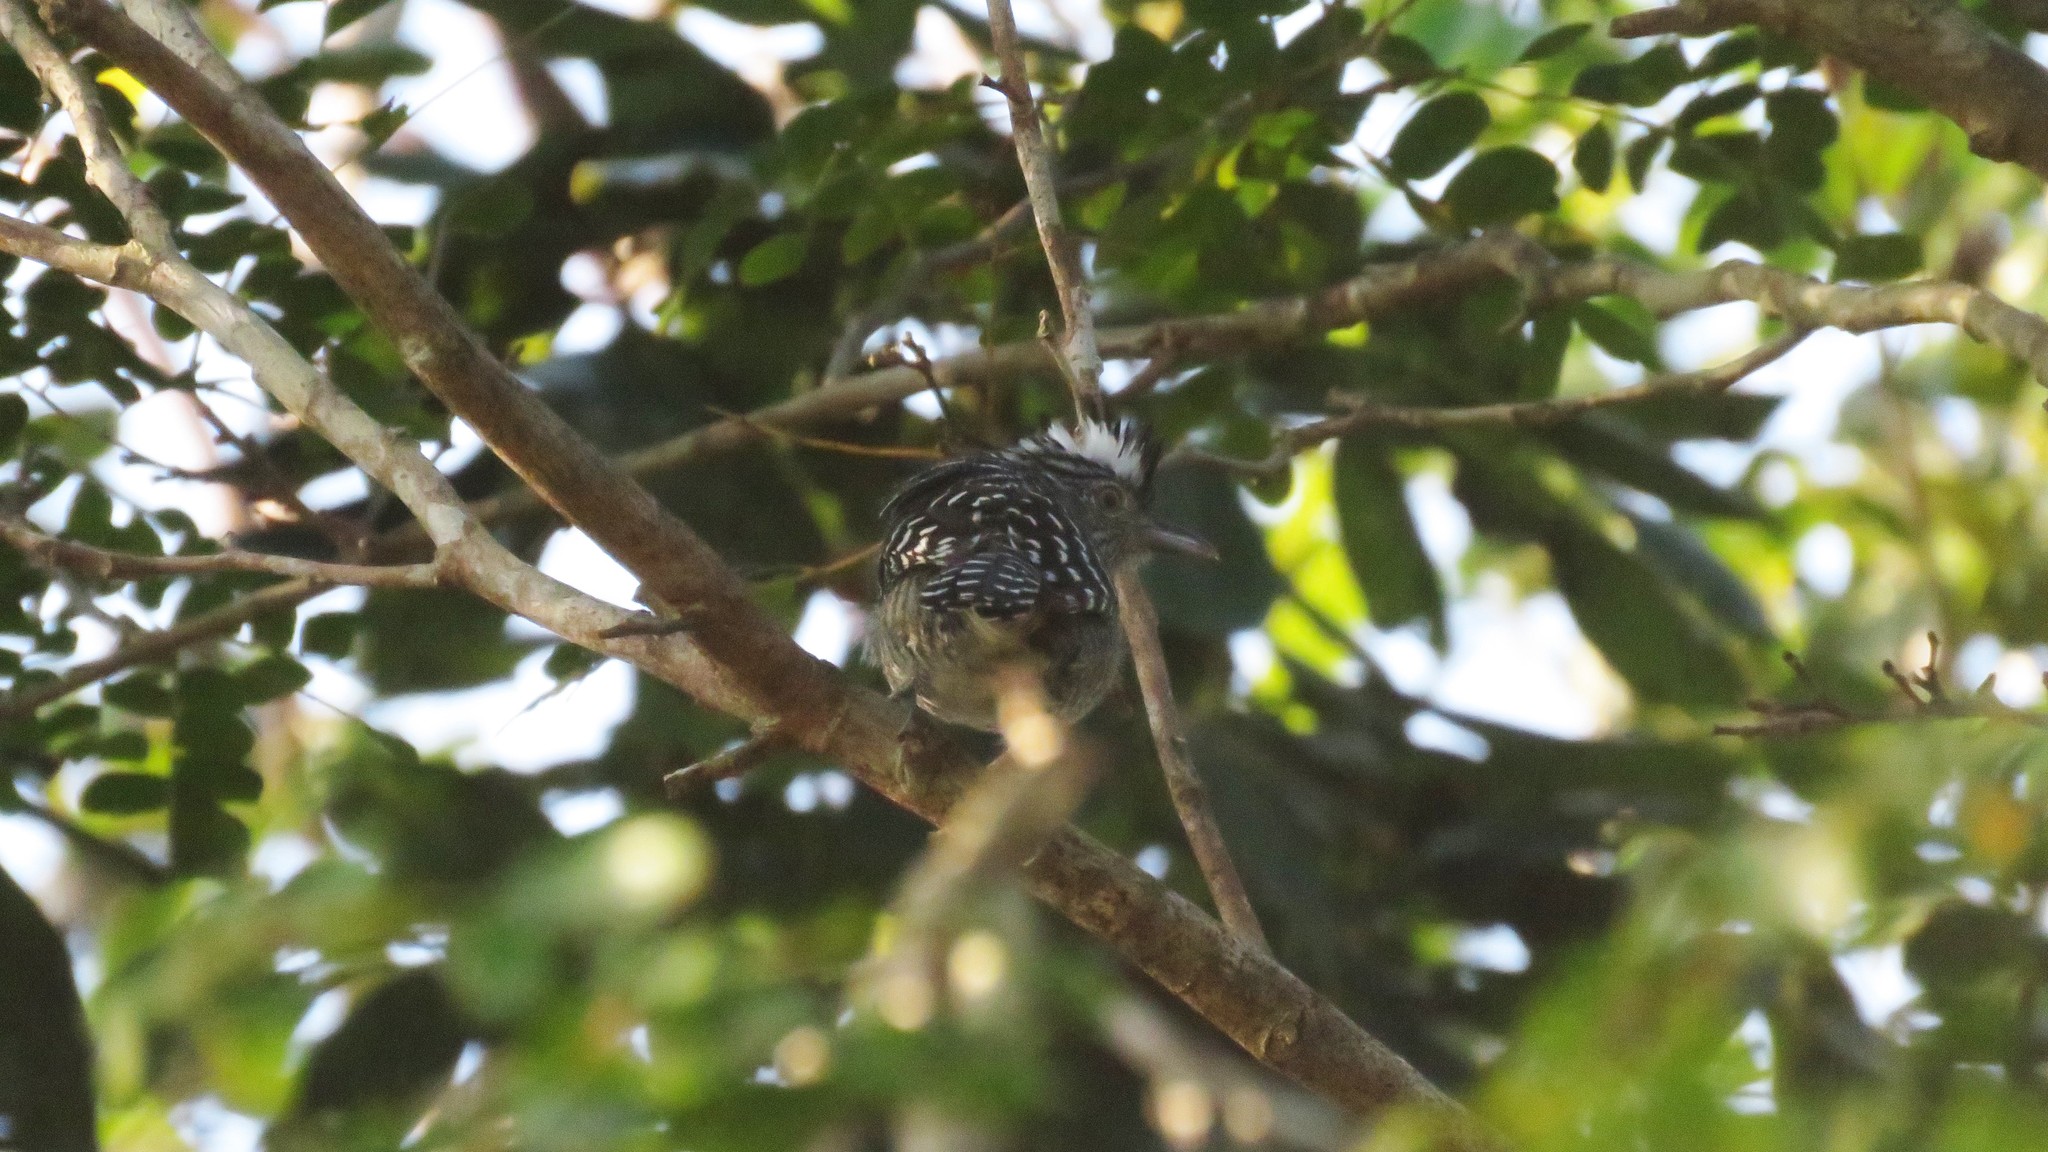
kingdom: Animalia
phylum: Chordata
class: Aves
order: Passeriformes
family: Thamnophilidae
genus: Thamnophilus
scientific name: Thamnophilus doliatus
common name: Barred antshrike
